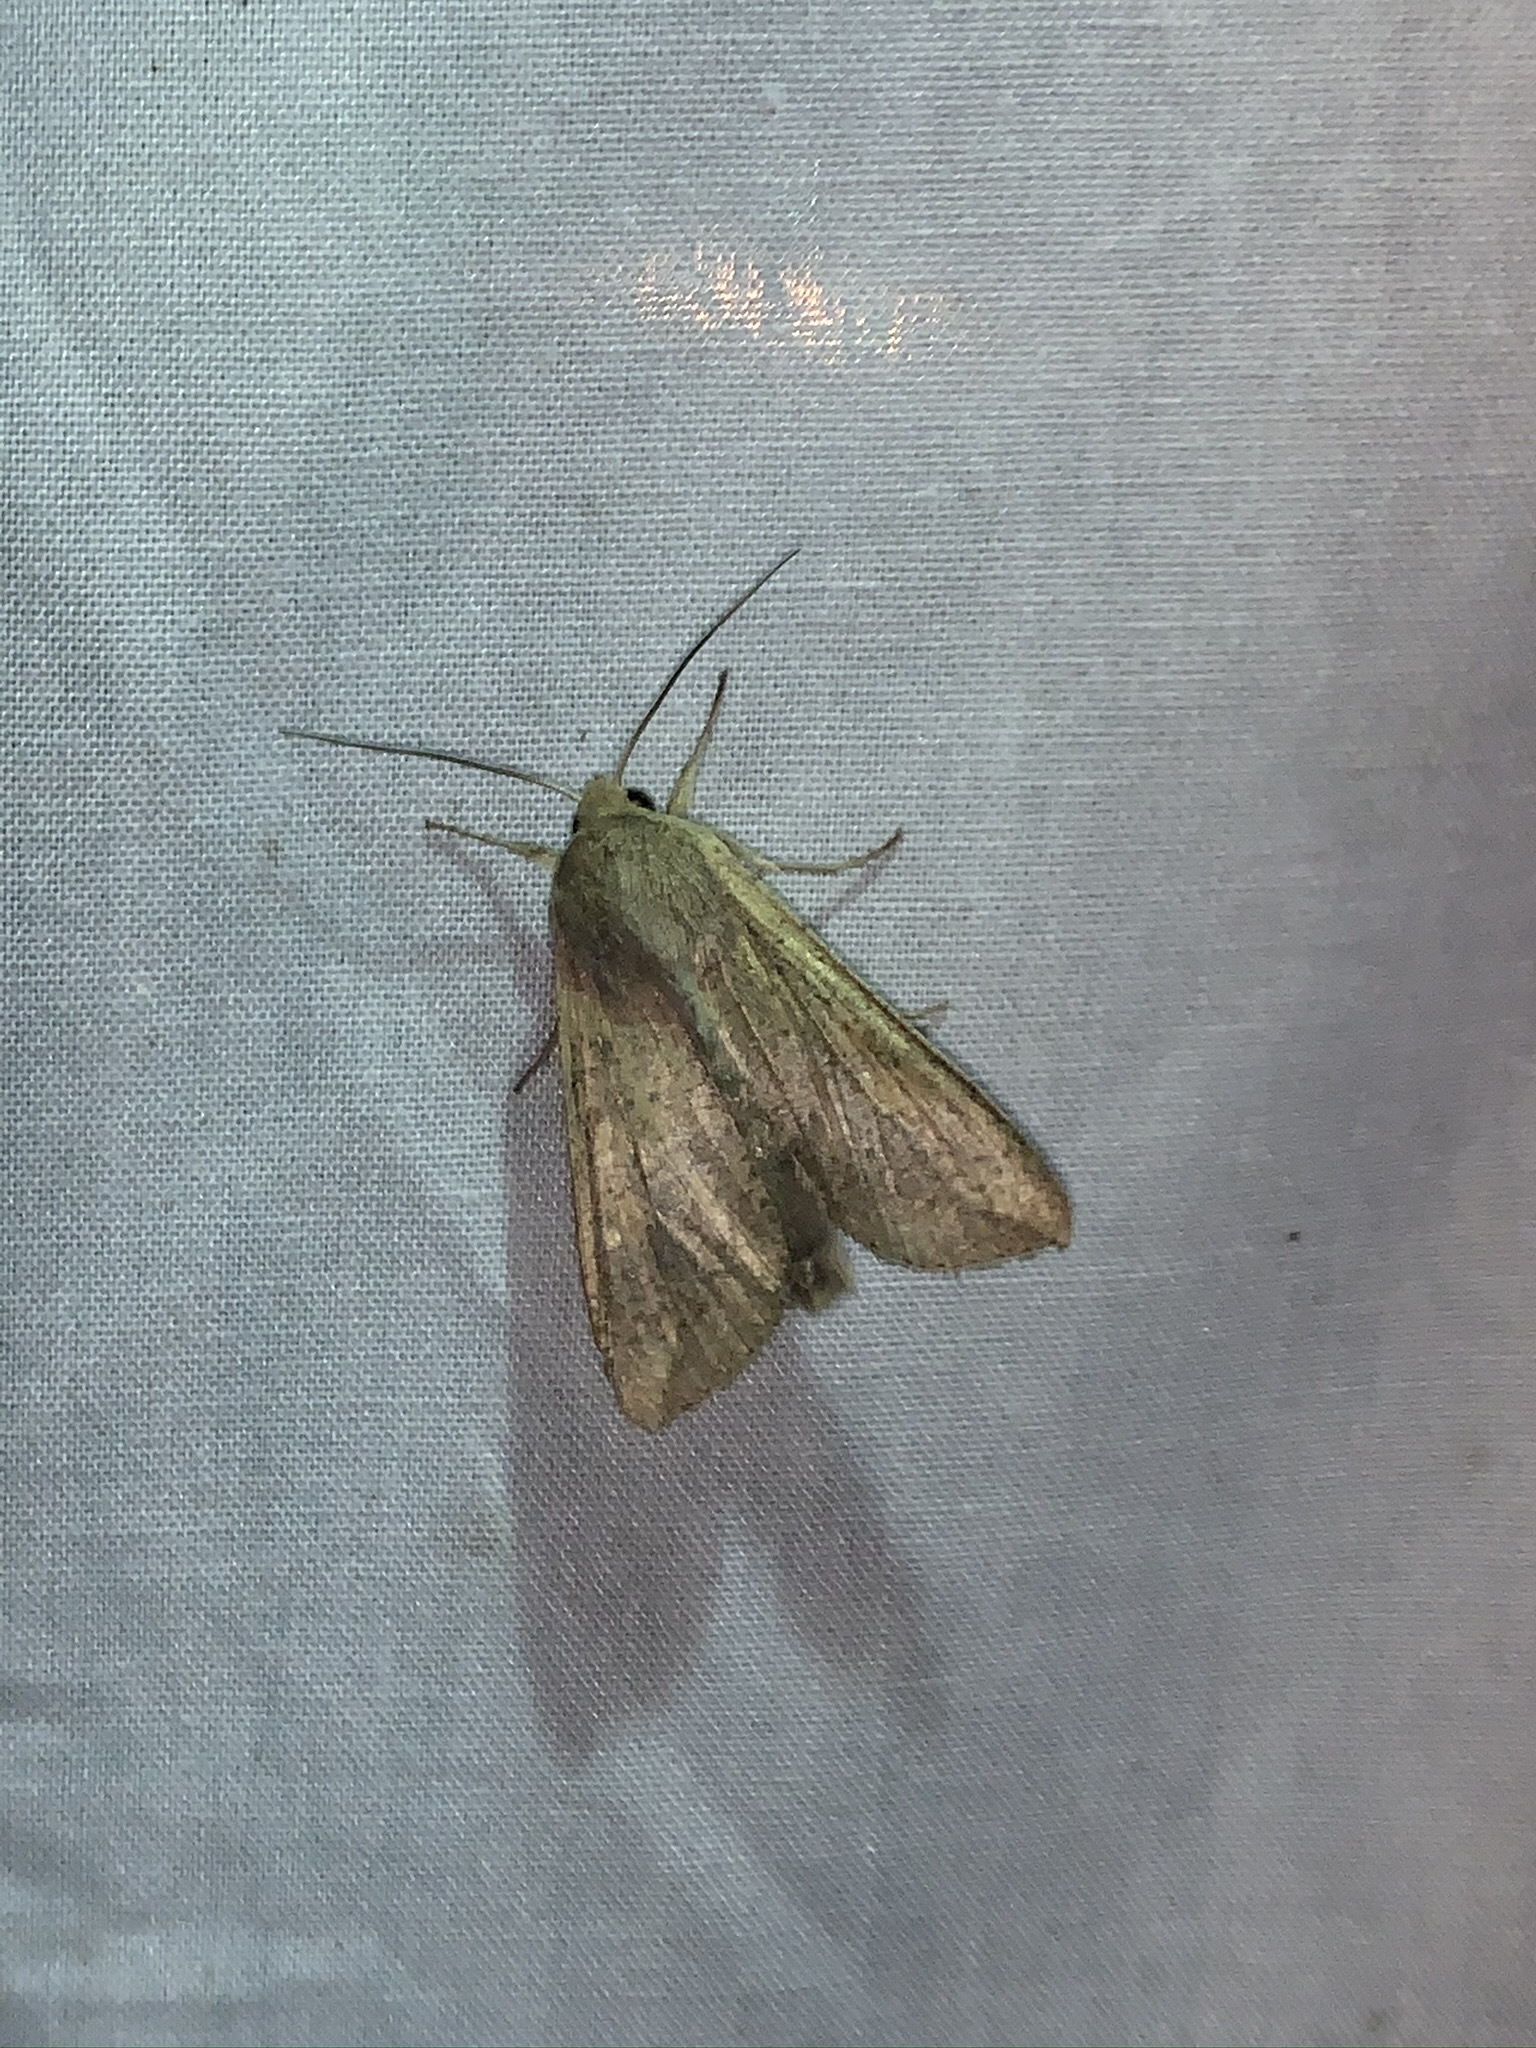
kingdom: Animalia
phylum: Arthropoda
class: Insecta
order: Lepidoptera
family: Noctuidae
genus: Mythimna
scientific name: Mythimna unipuncta
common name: White-speck
